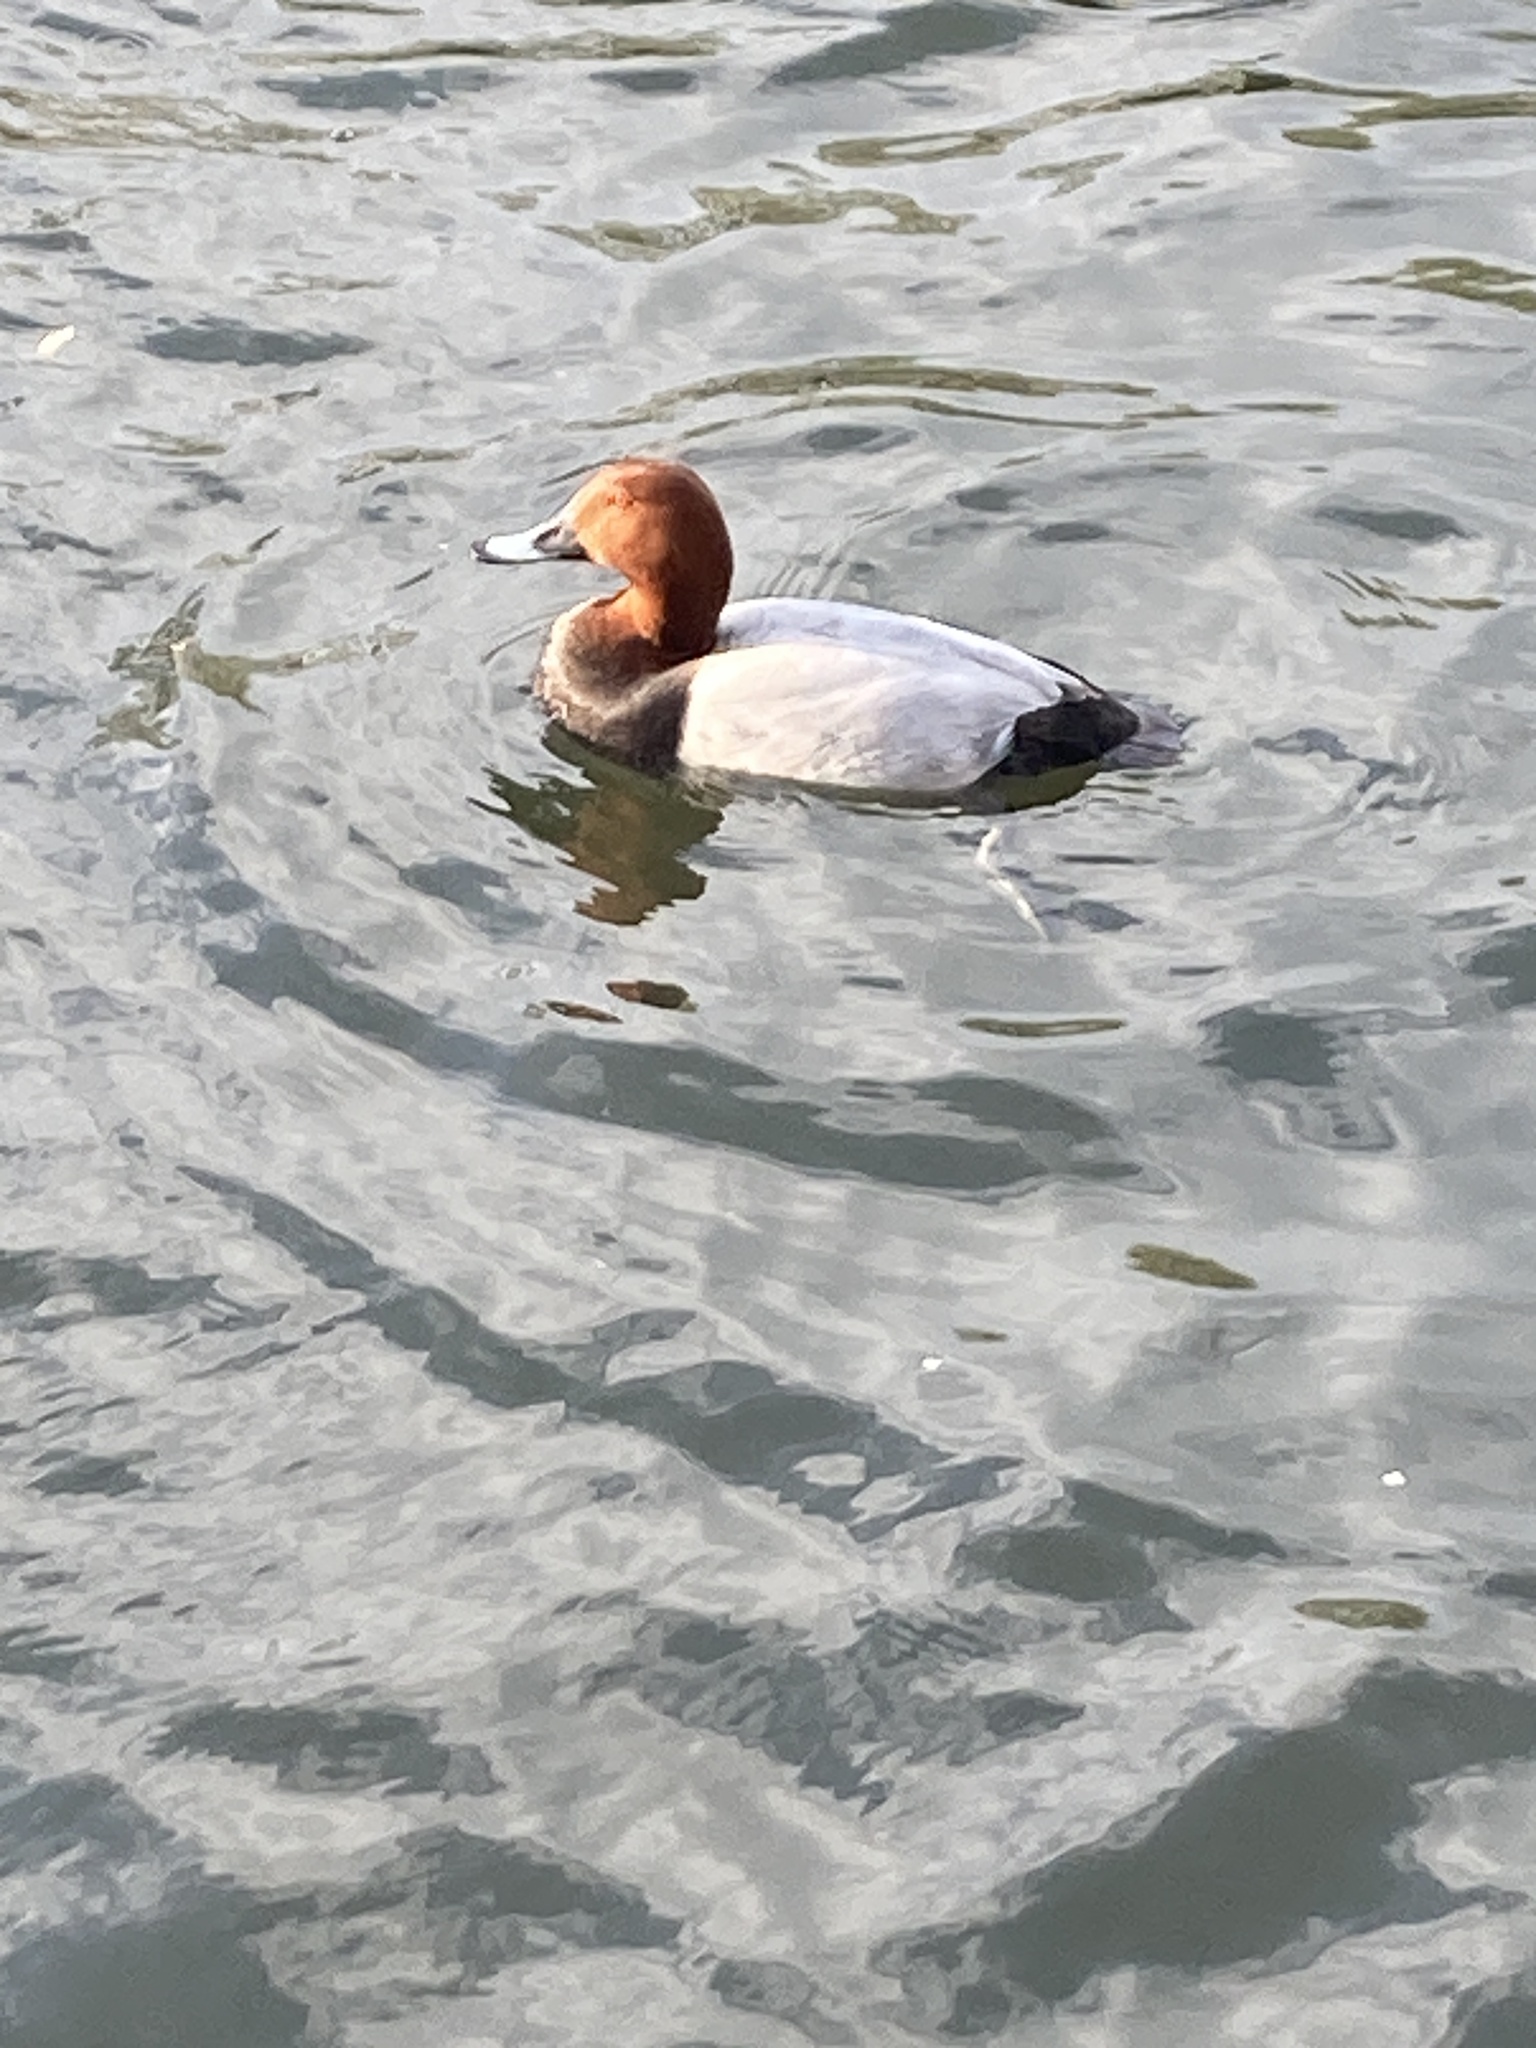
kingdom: Animalia
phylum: Chordata
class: Aves
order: Anseriformes
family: Anatidae
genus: Aythya
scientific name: Aythya ferina
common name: Common pochard
